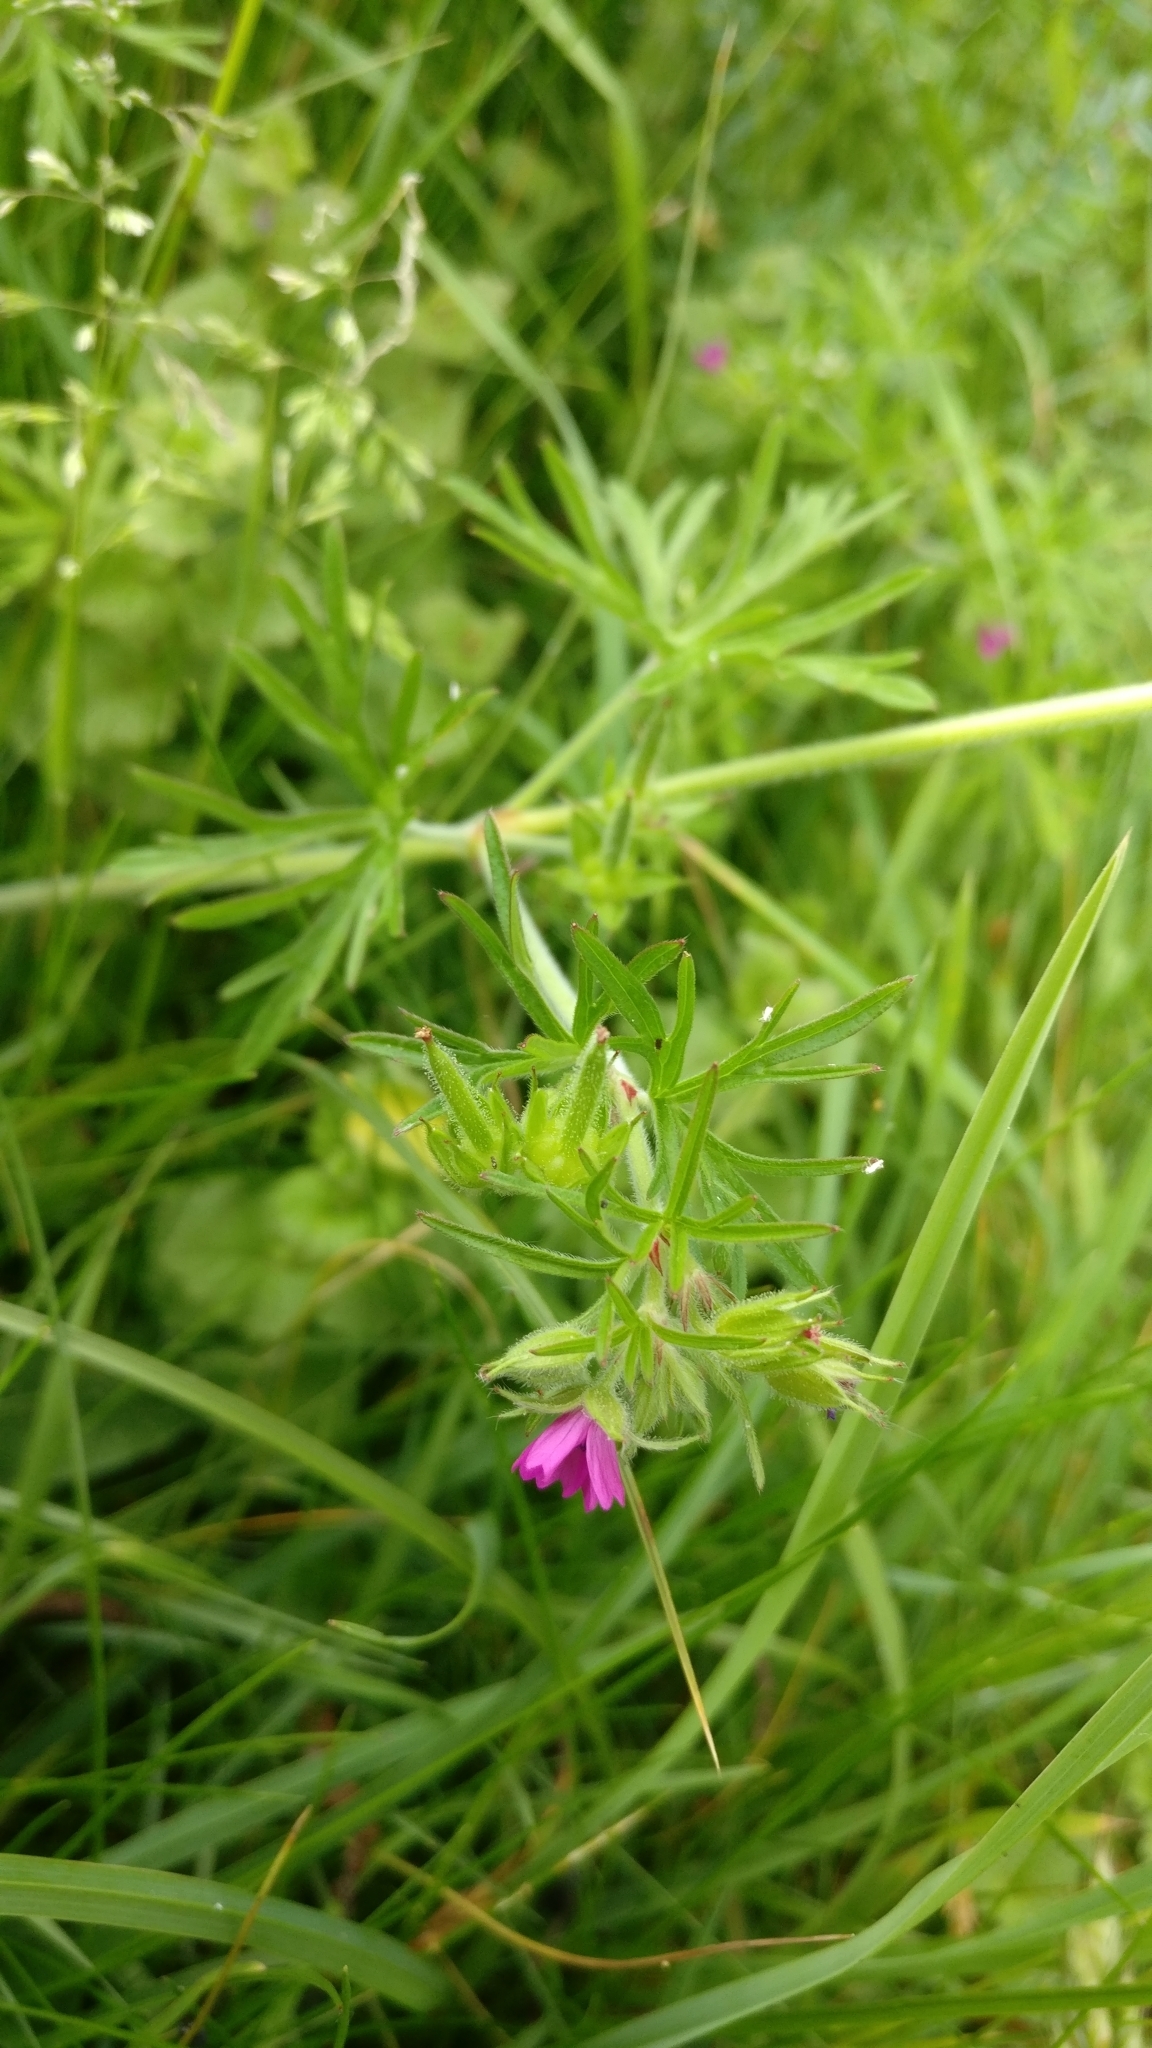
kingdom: Plantae
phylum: Tracheophyta
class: Magnoliopsida
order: Geraniales
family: Geraniaceae
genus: Geranium
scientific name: Geranium dissectum
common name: Cut-leaved crane's-bill
